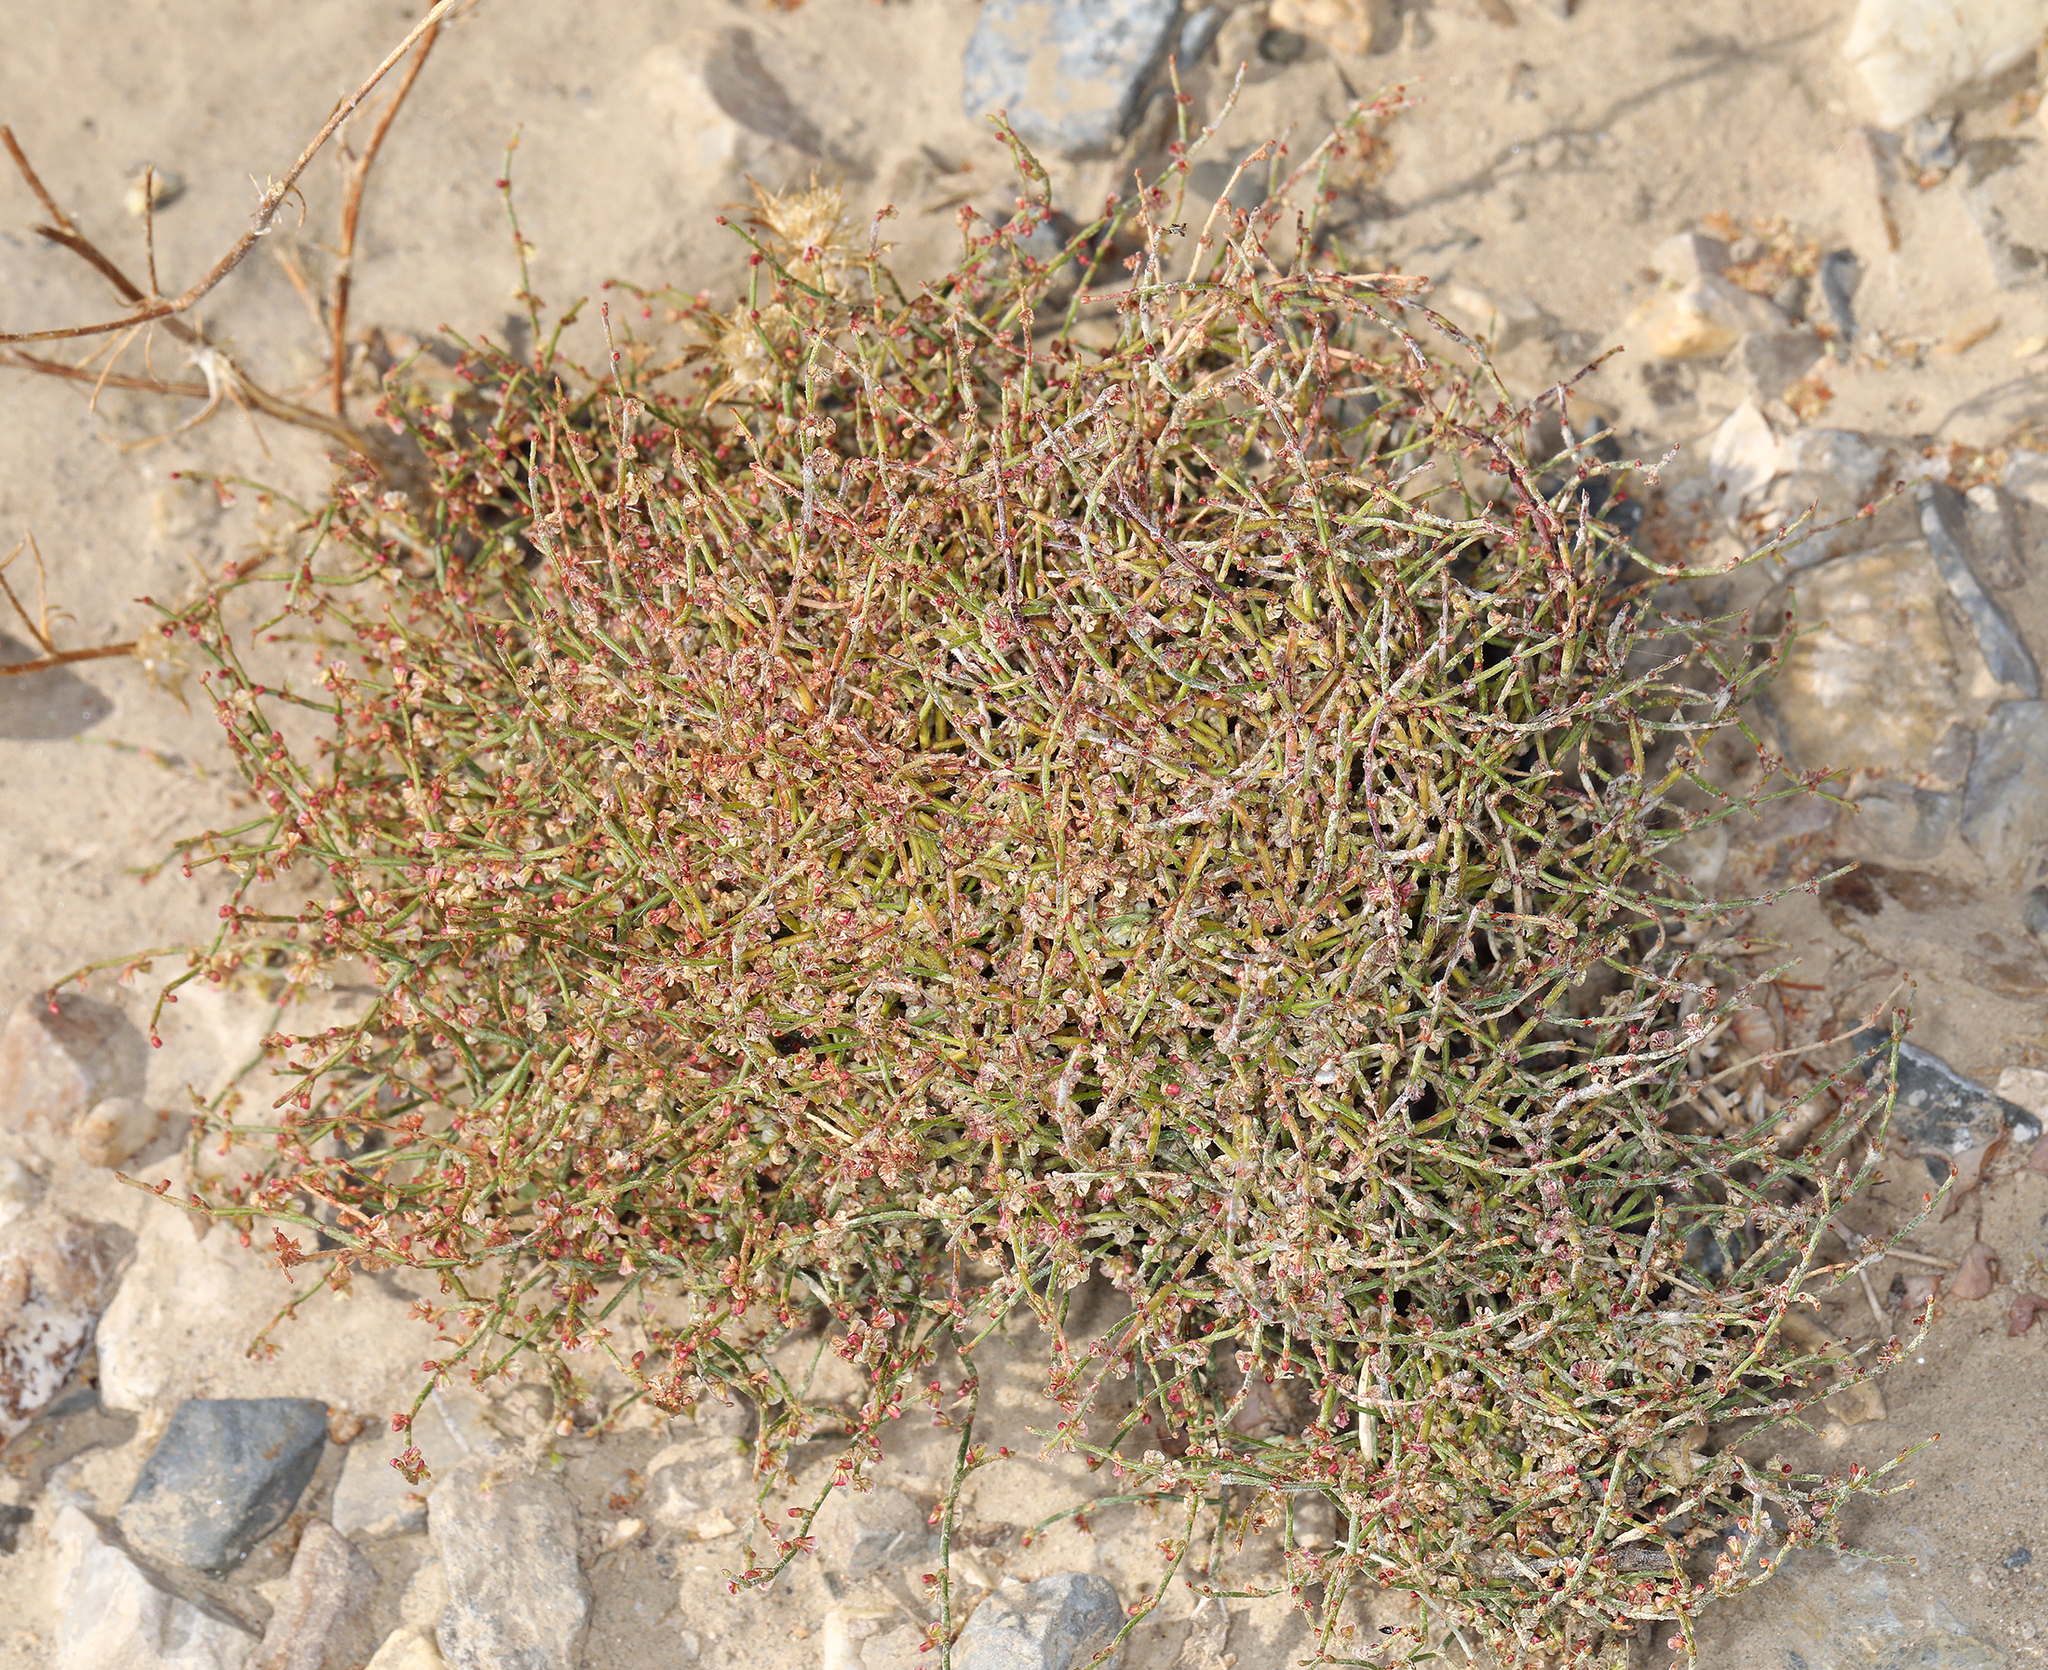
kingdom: Plantae
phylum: Tracheophyta
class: Magnoliopsida
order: Caryophyllales
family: Polygonaceae
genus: Eriogonum
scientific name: Eriogonum nidularium
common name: Bird's-nest wild buckwheat
